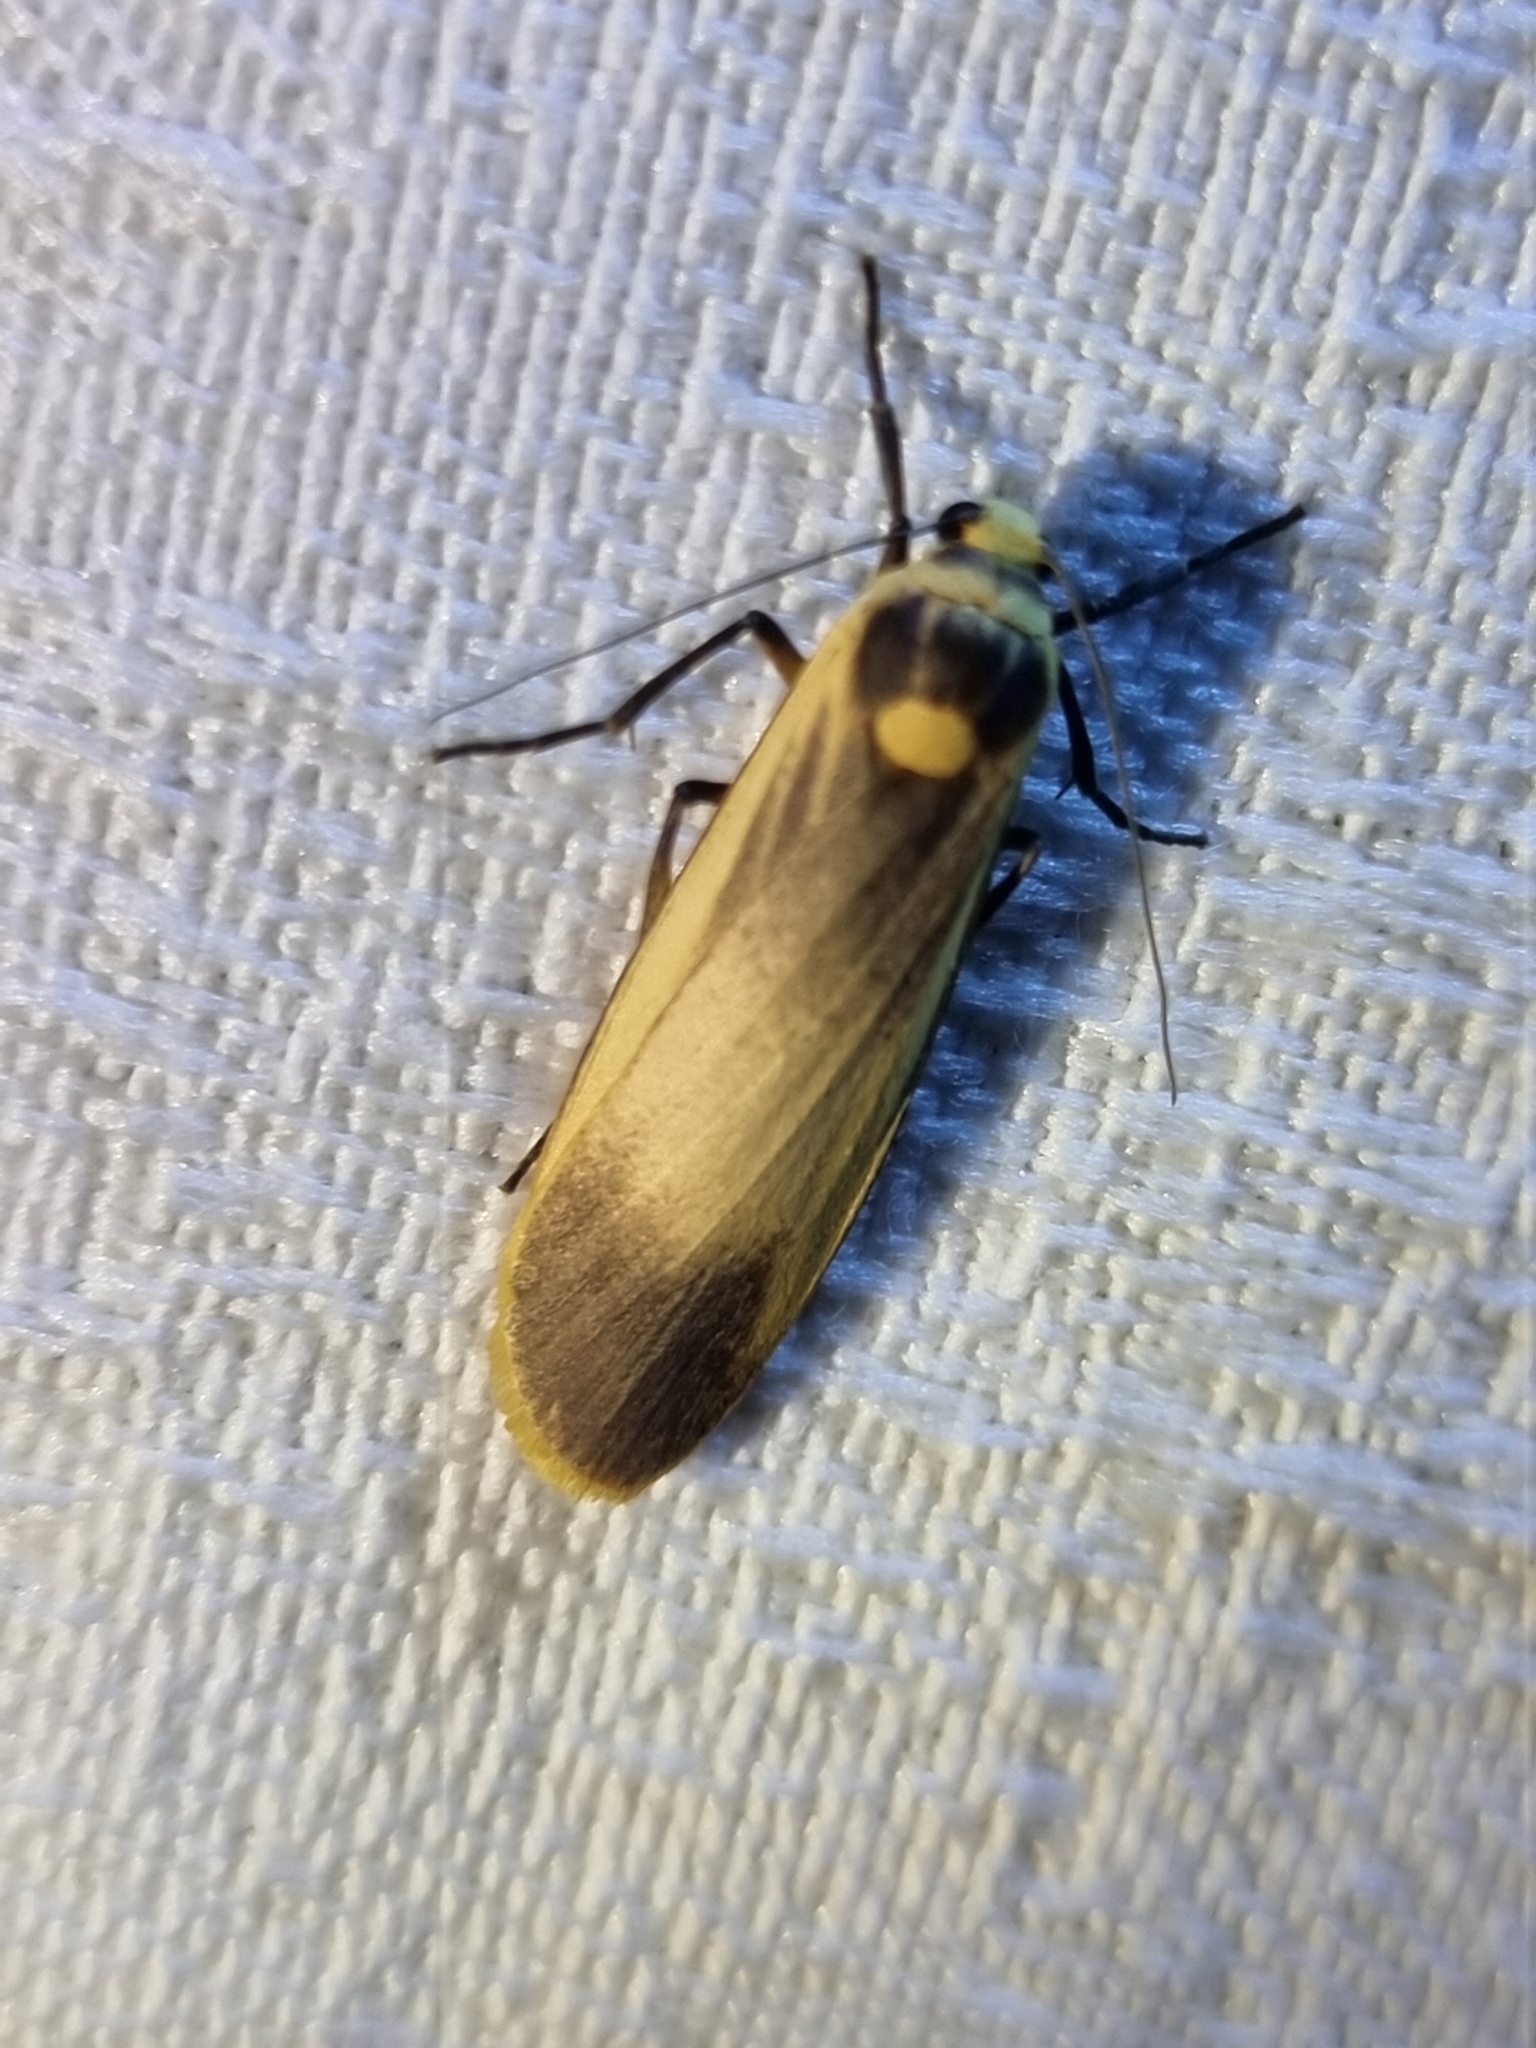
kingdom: Animalia
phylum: Arthropoda
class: Insecta
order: Lepidoptera
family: Erebidae
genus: Brunia
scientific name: Brunia replana
